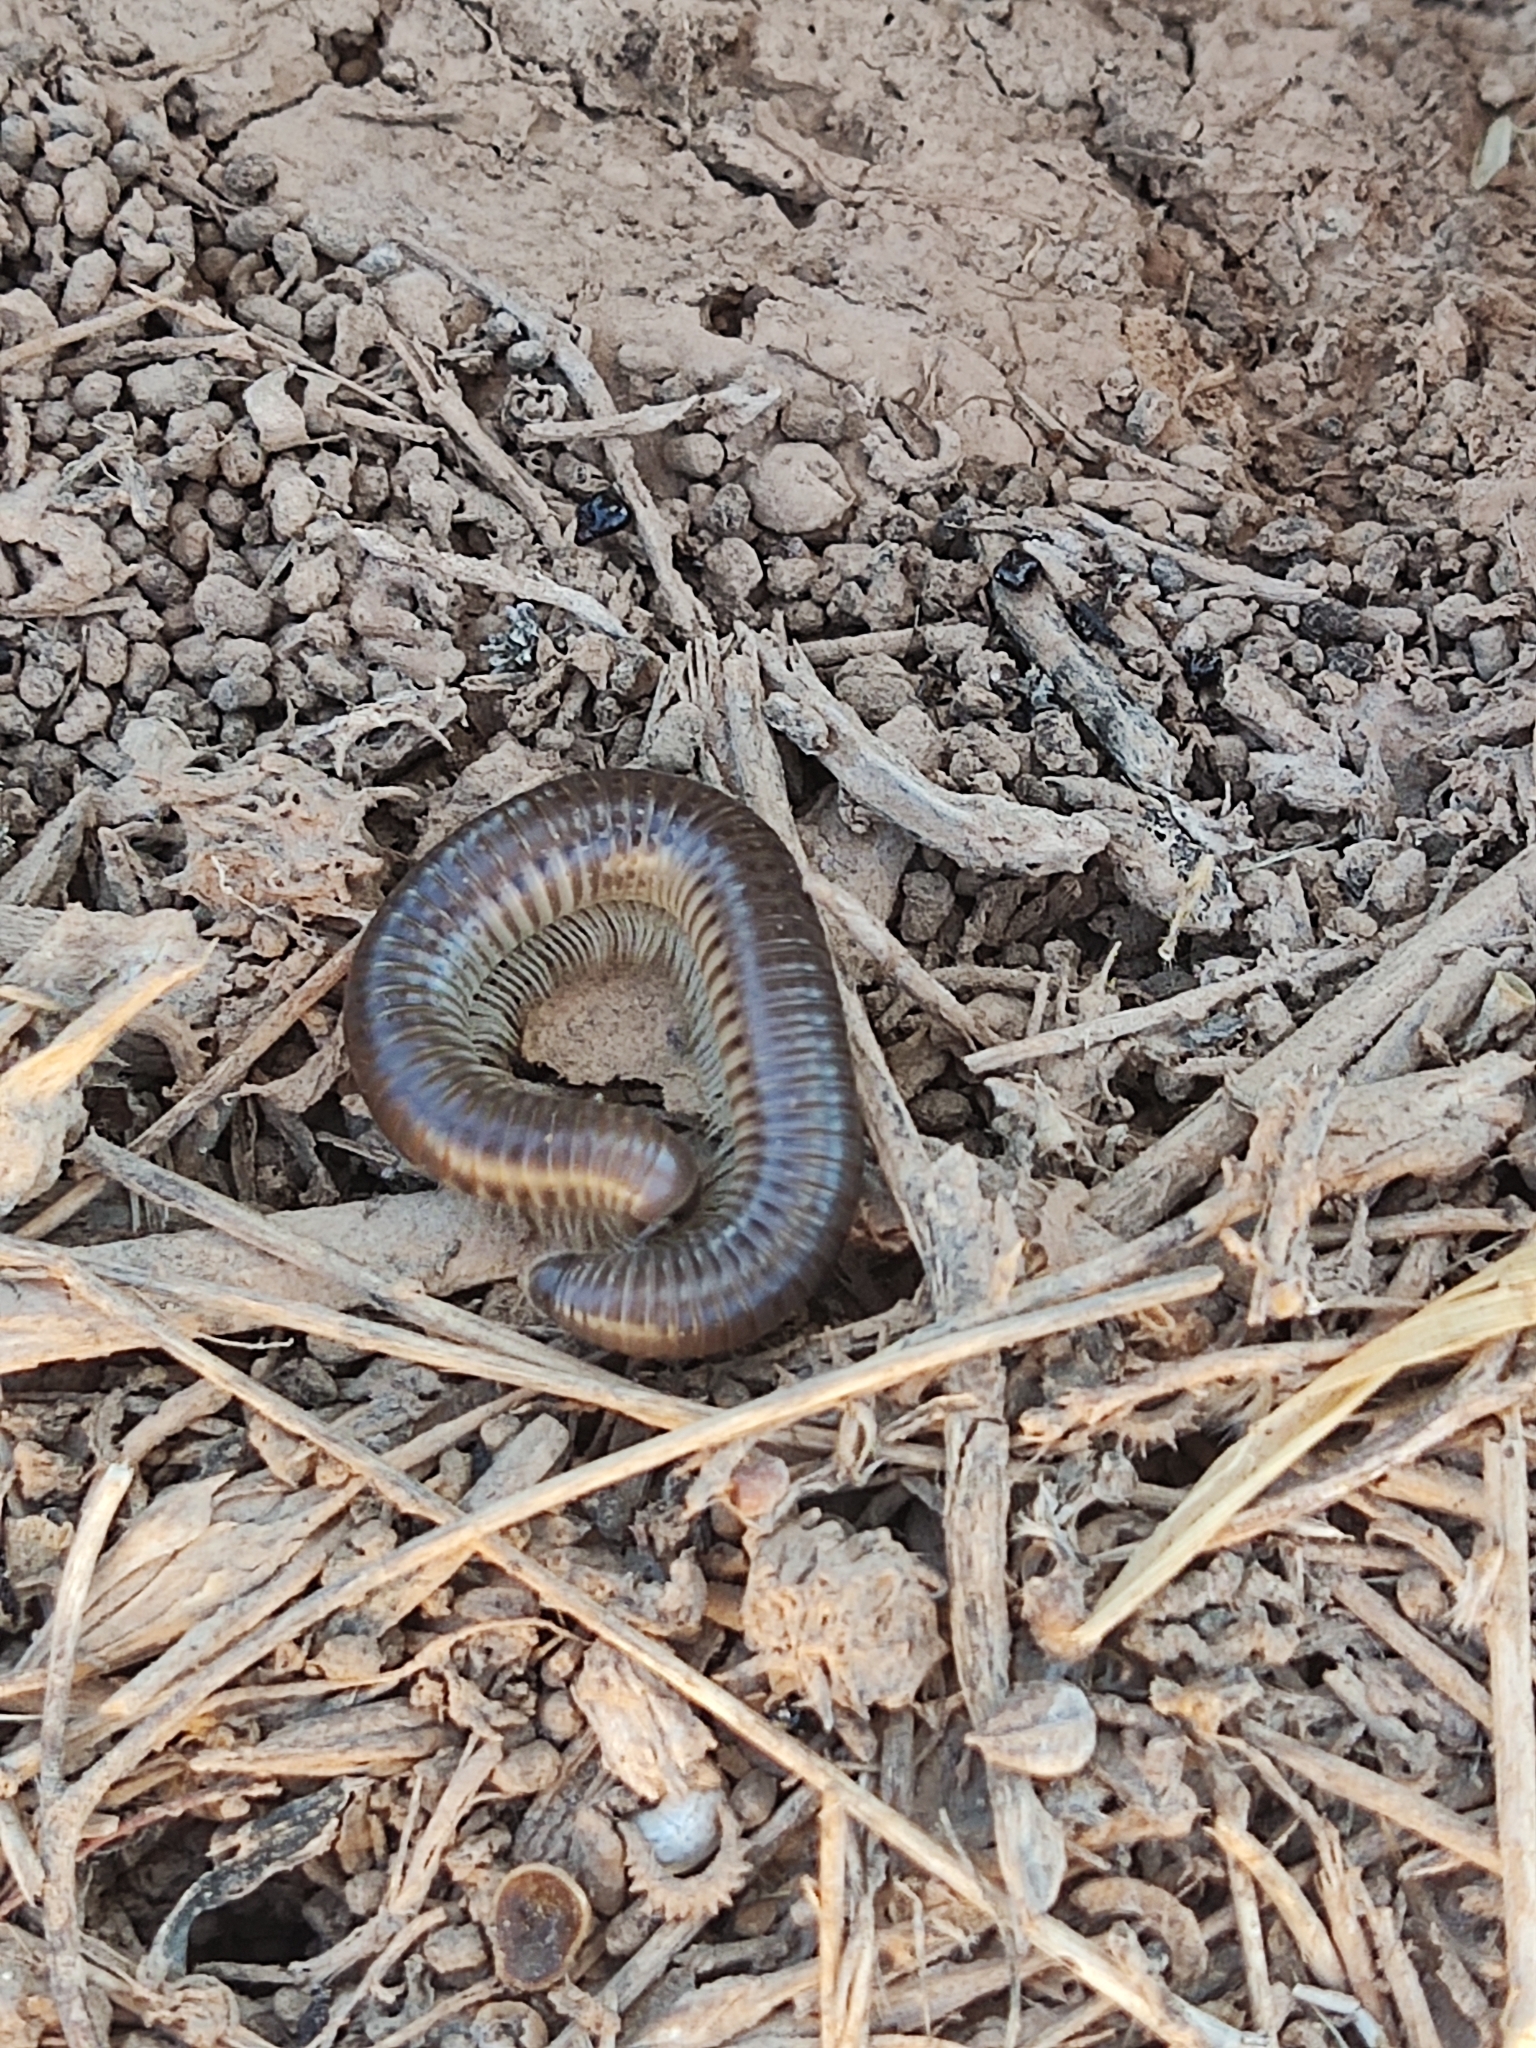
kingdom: Animalia
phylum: Arthropoda
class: Diplopoda
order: Julida
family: Julidae
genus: Pachyiulus
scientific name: Pachyiulus flavipes
